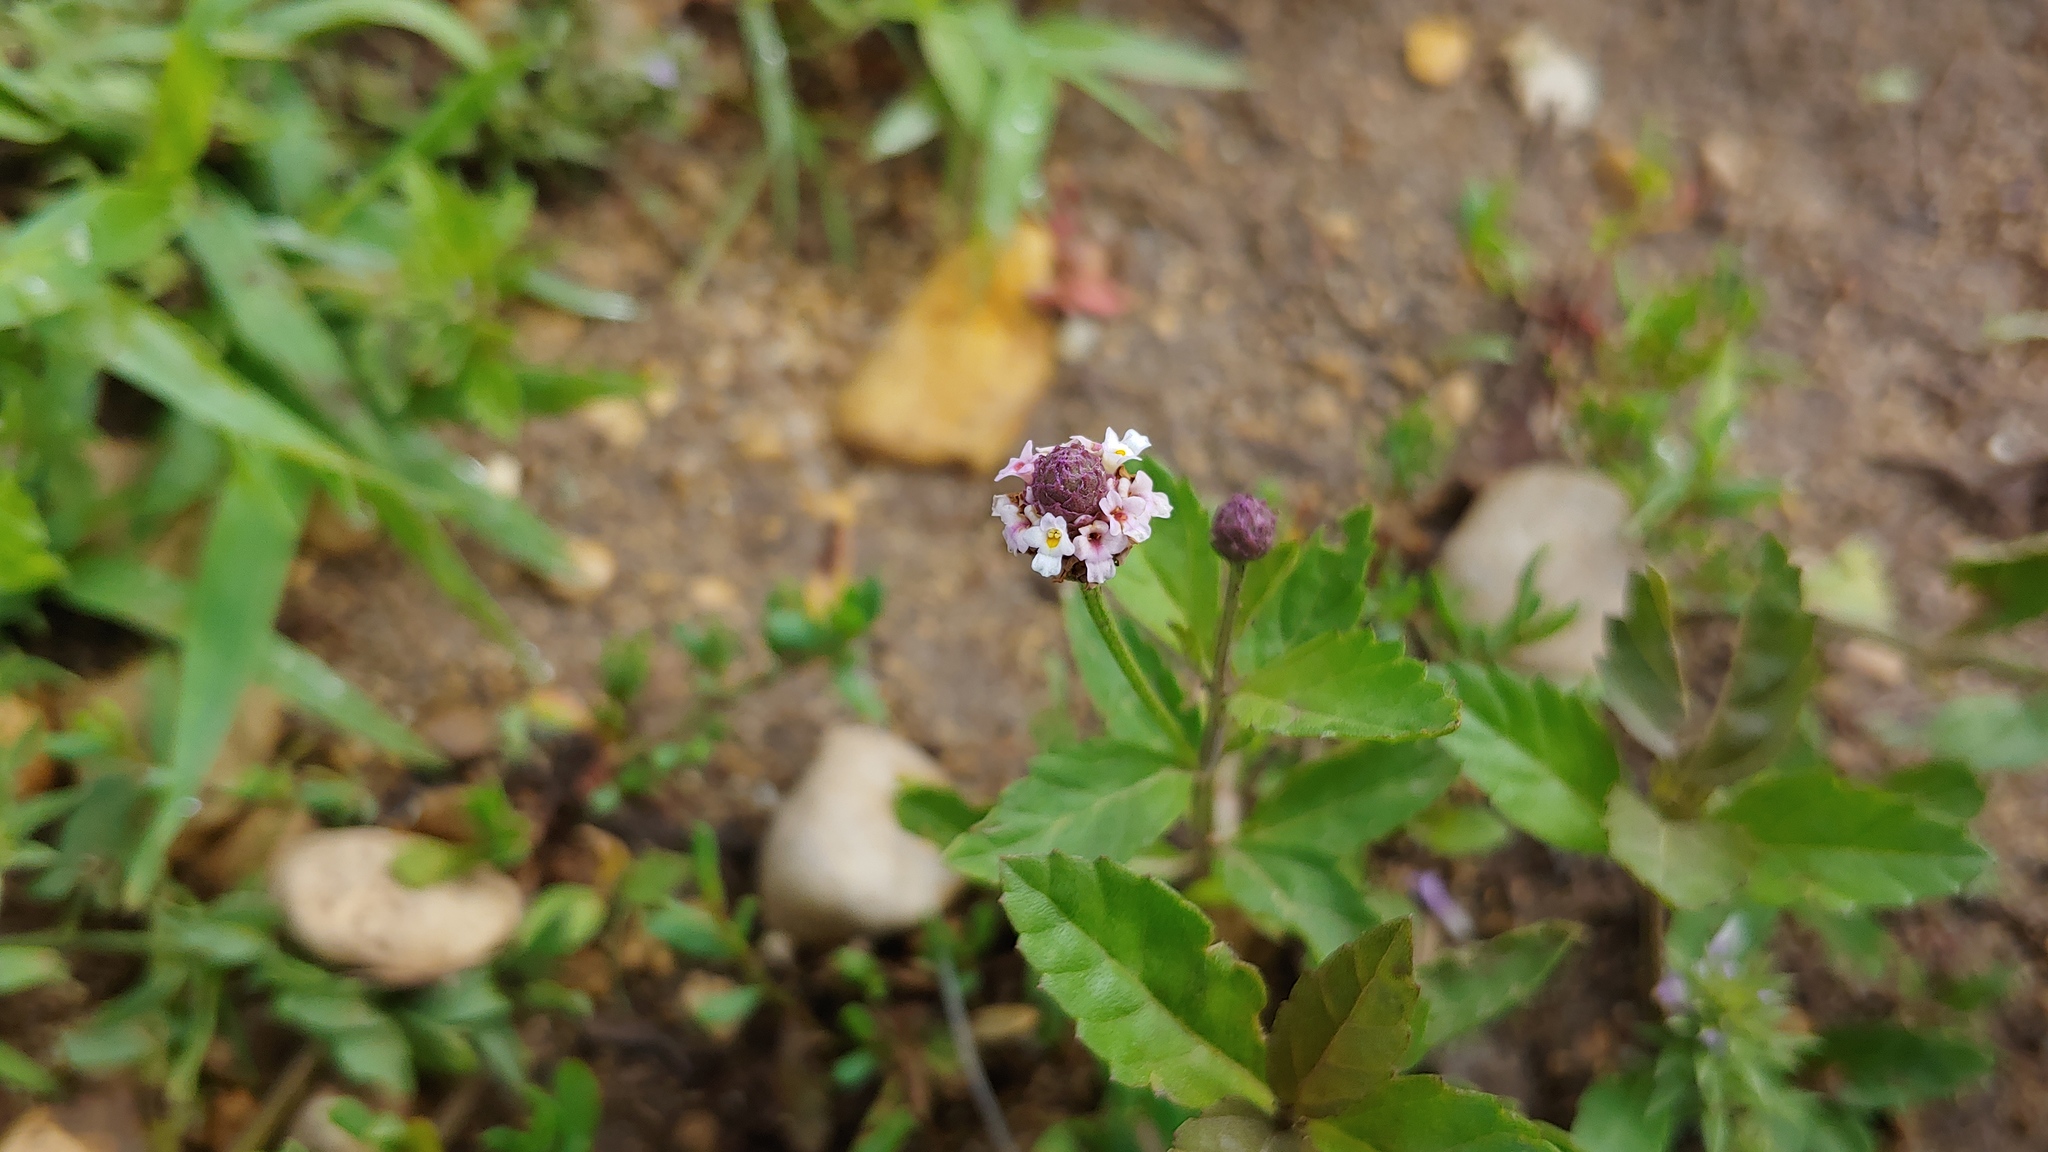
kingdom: Plantae
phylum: Tracheophyta
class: Magnoliopsida
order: Lamiales
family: Verbenaceae
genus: Phyla
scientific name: Phyla lanceolata
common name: Northern fogfruit
